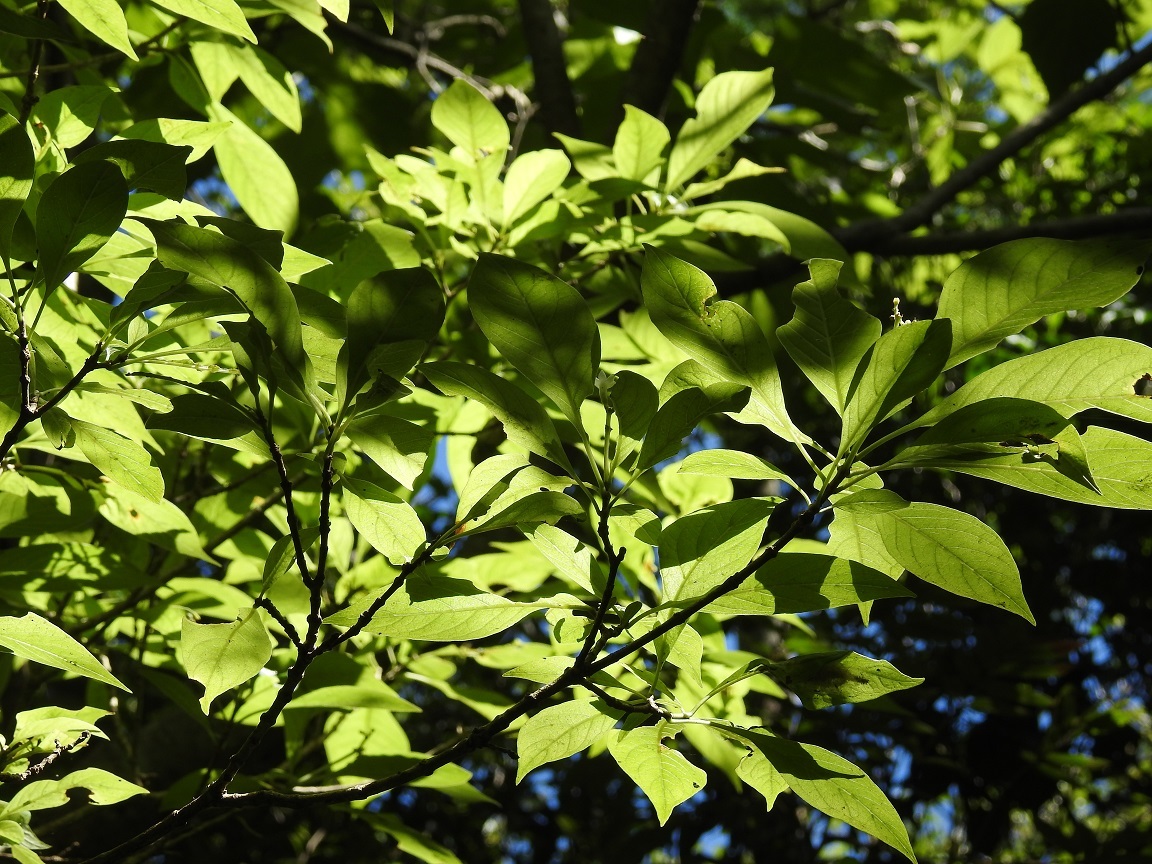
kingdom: Plantae
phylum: Tracheophyta
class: Magnoliopsida
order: Gentianales
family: Rubiaceae
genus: Eumachia
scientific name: Eumachia microdon
